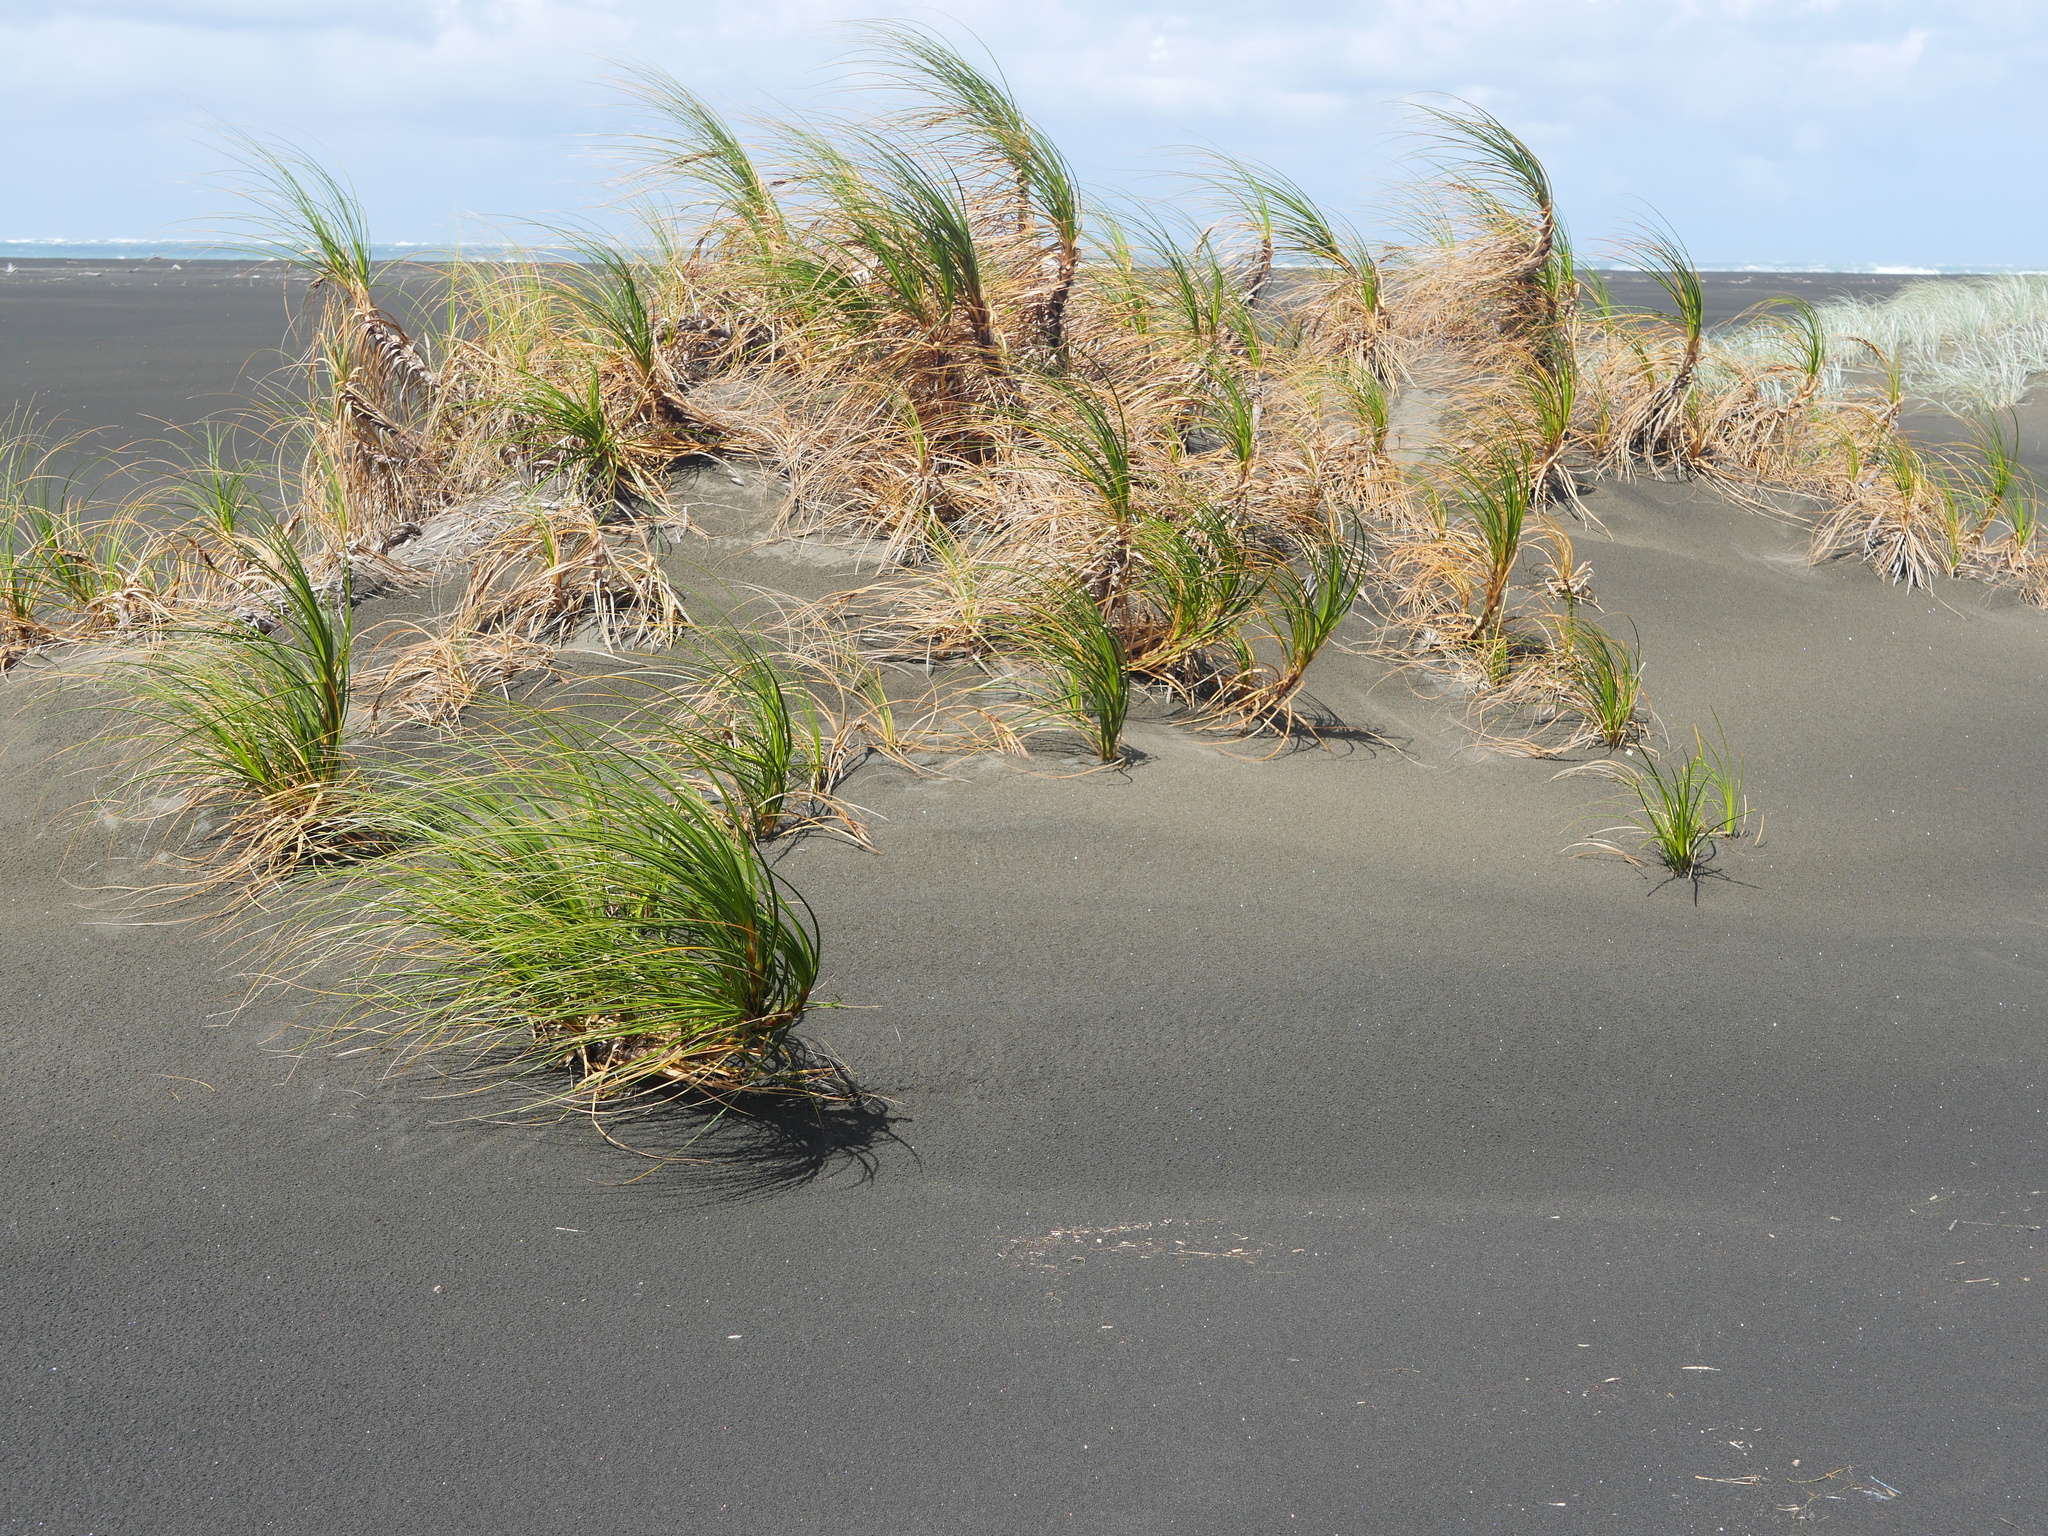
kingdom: Plantae
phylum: Tracheophyta
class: Liliopsida
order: Poales
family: Cyperaceae
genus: Ficinia
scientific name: Ficinia spiralis
